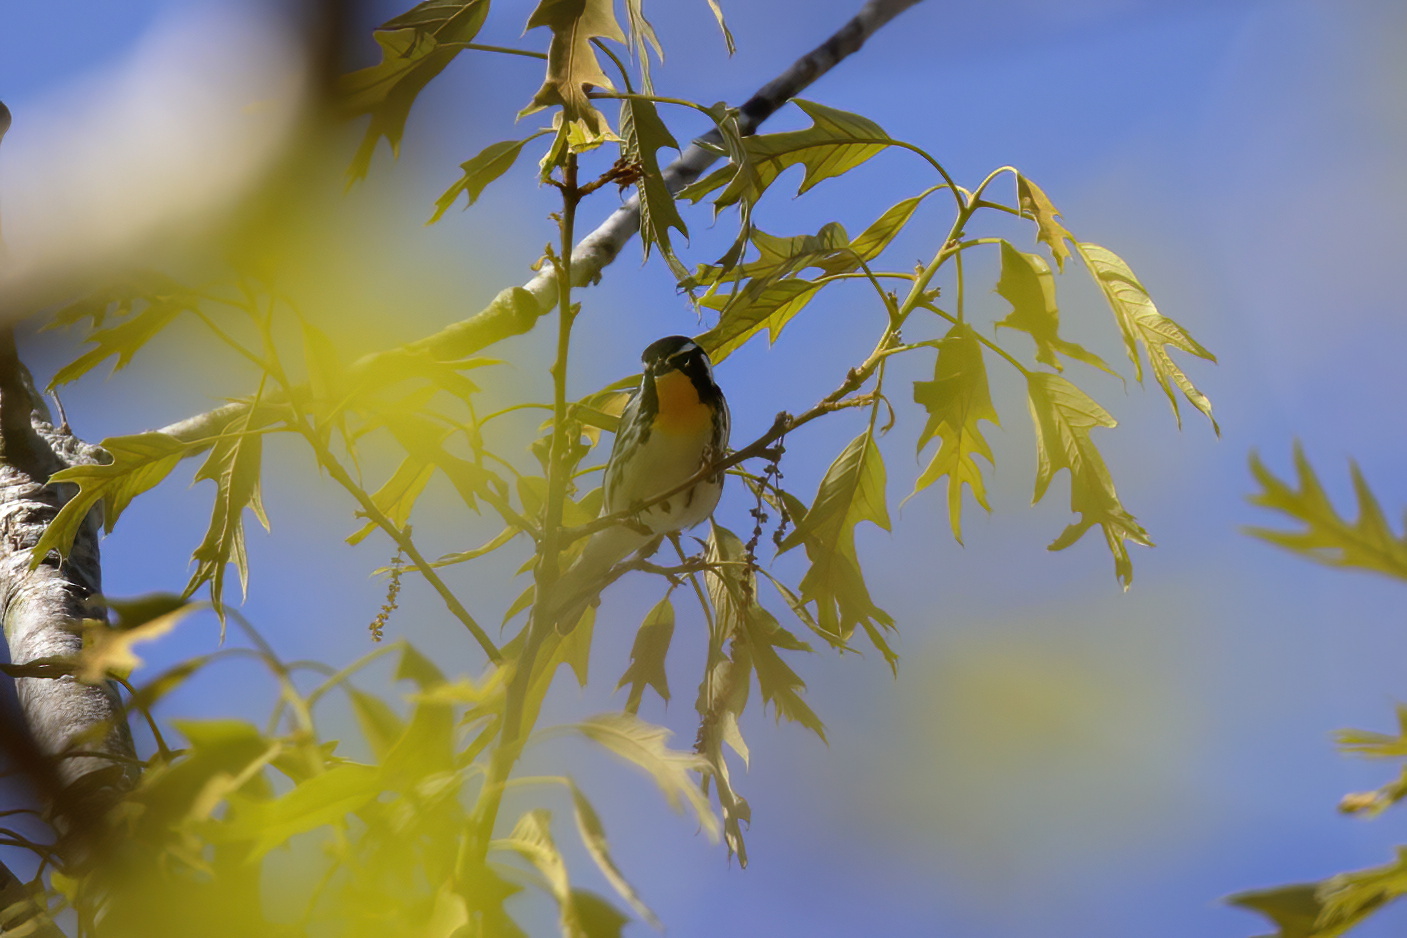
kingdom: Animalia
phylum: Chordata
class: Aves
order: Passeriformes
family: Parulidae
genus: Setophaga
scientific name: Setophaga dominica
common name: Yellow-throated warbler
